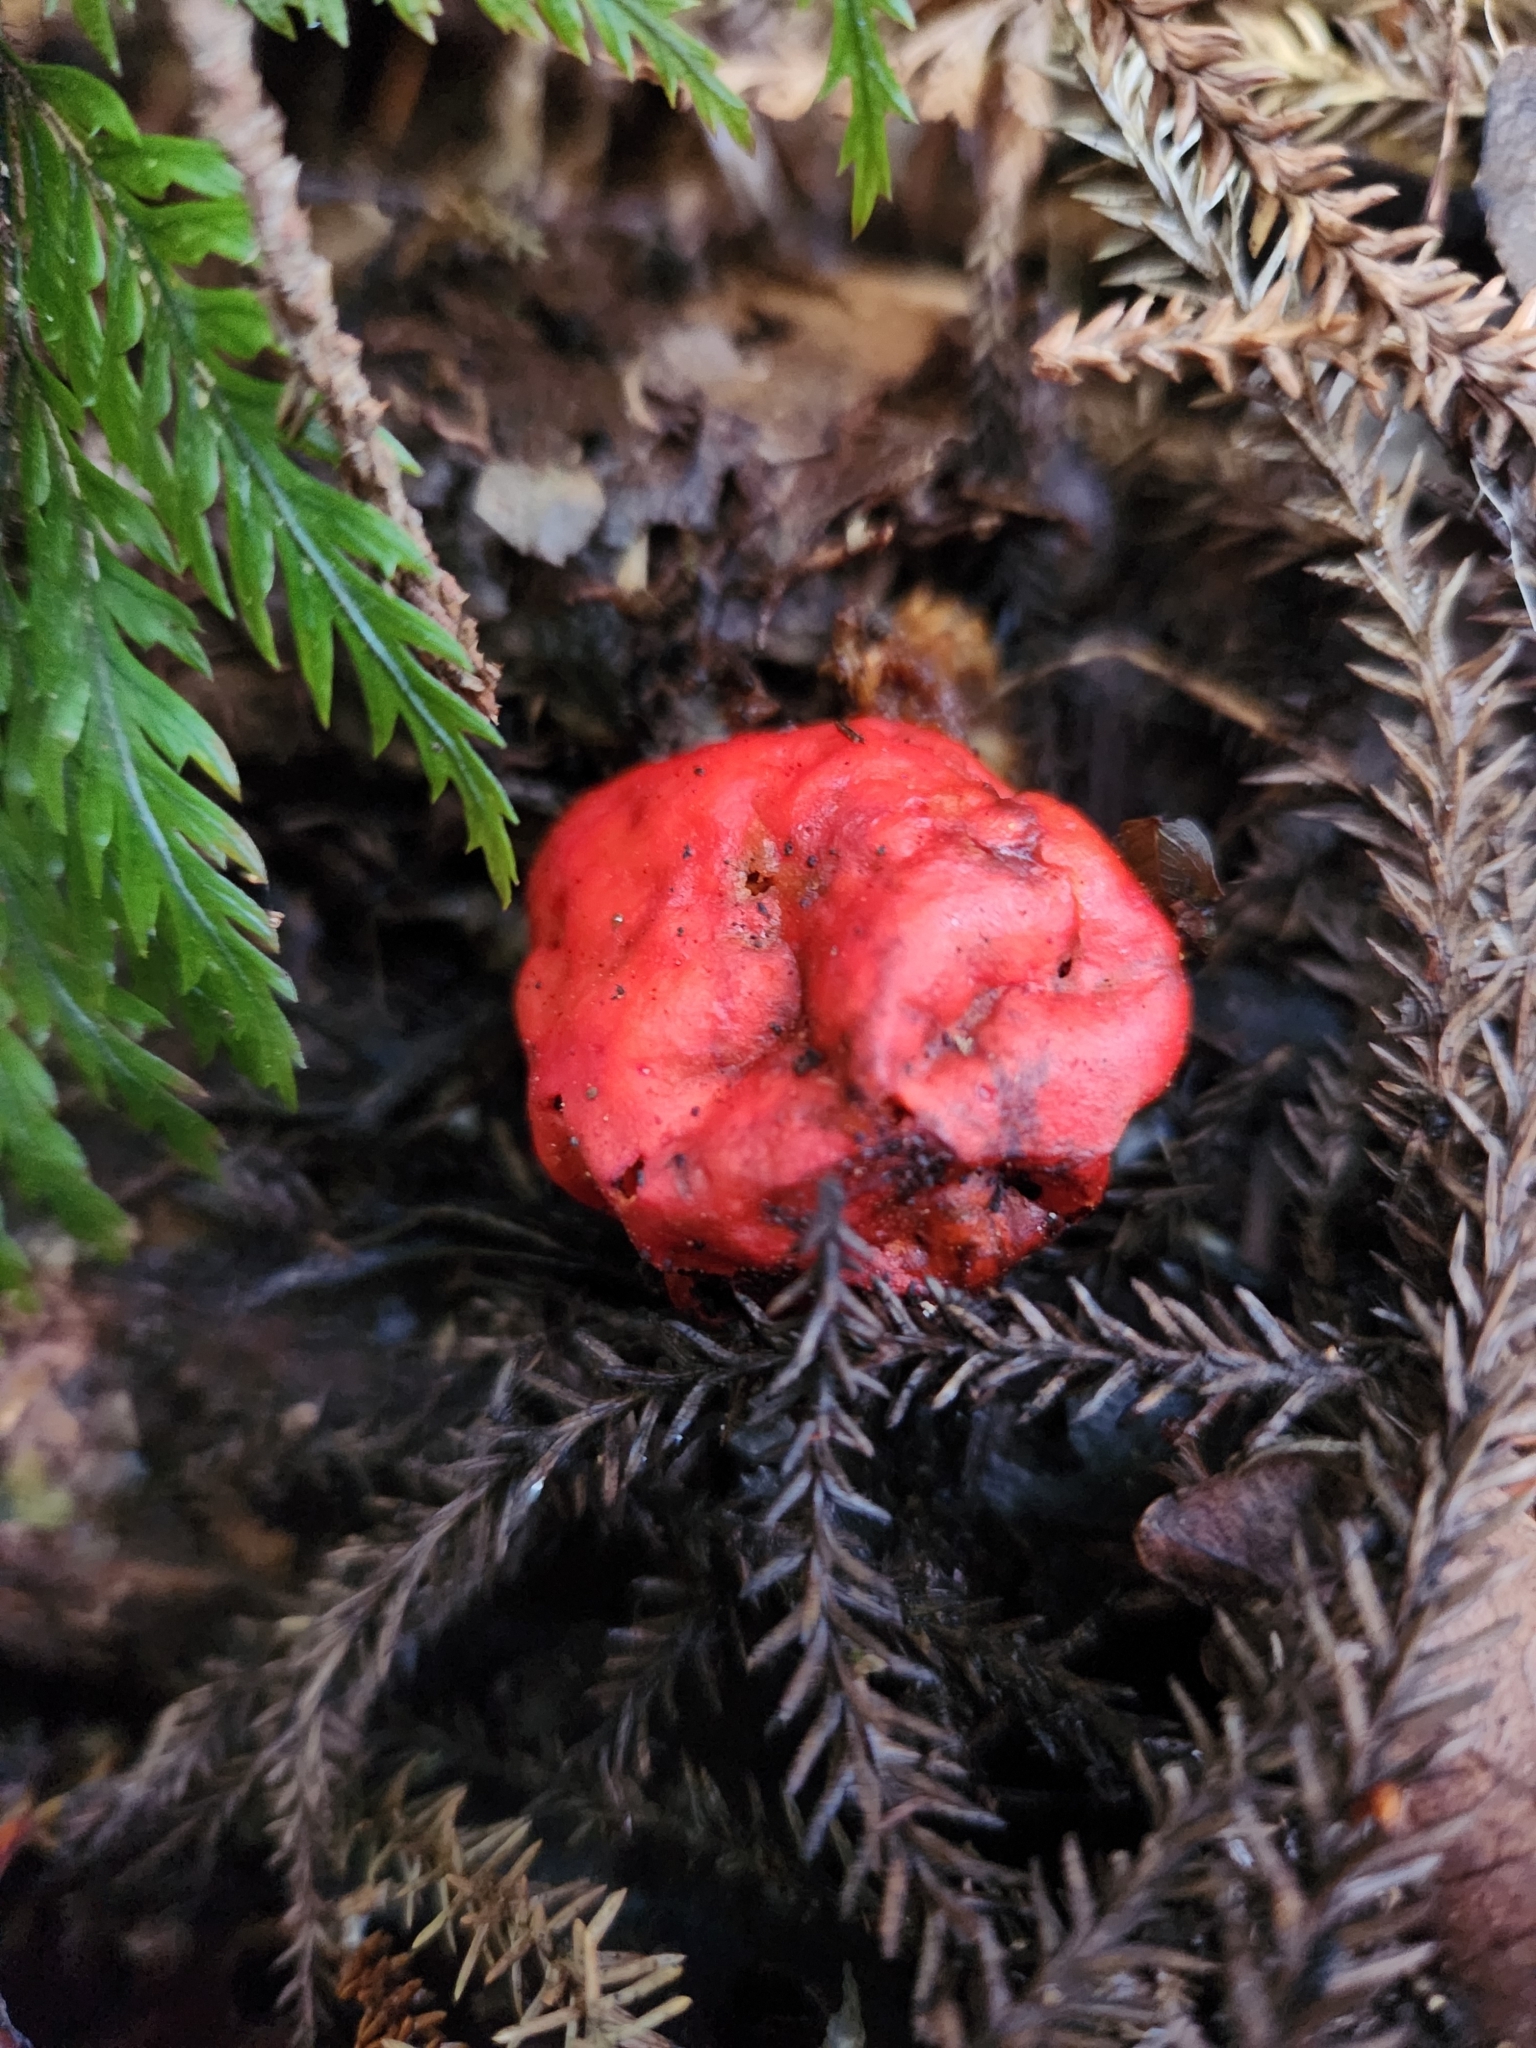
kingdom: Fungi
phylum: Basidiomycota
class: Agaricomycetes
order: Agaricales
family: Strophariaceae
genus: Leratiomyces
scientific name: Leratiomyces erythrocephalus
